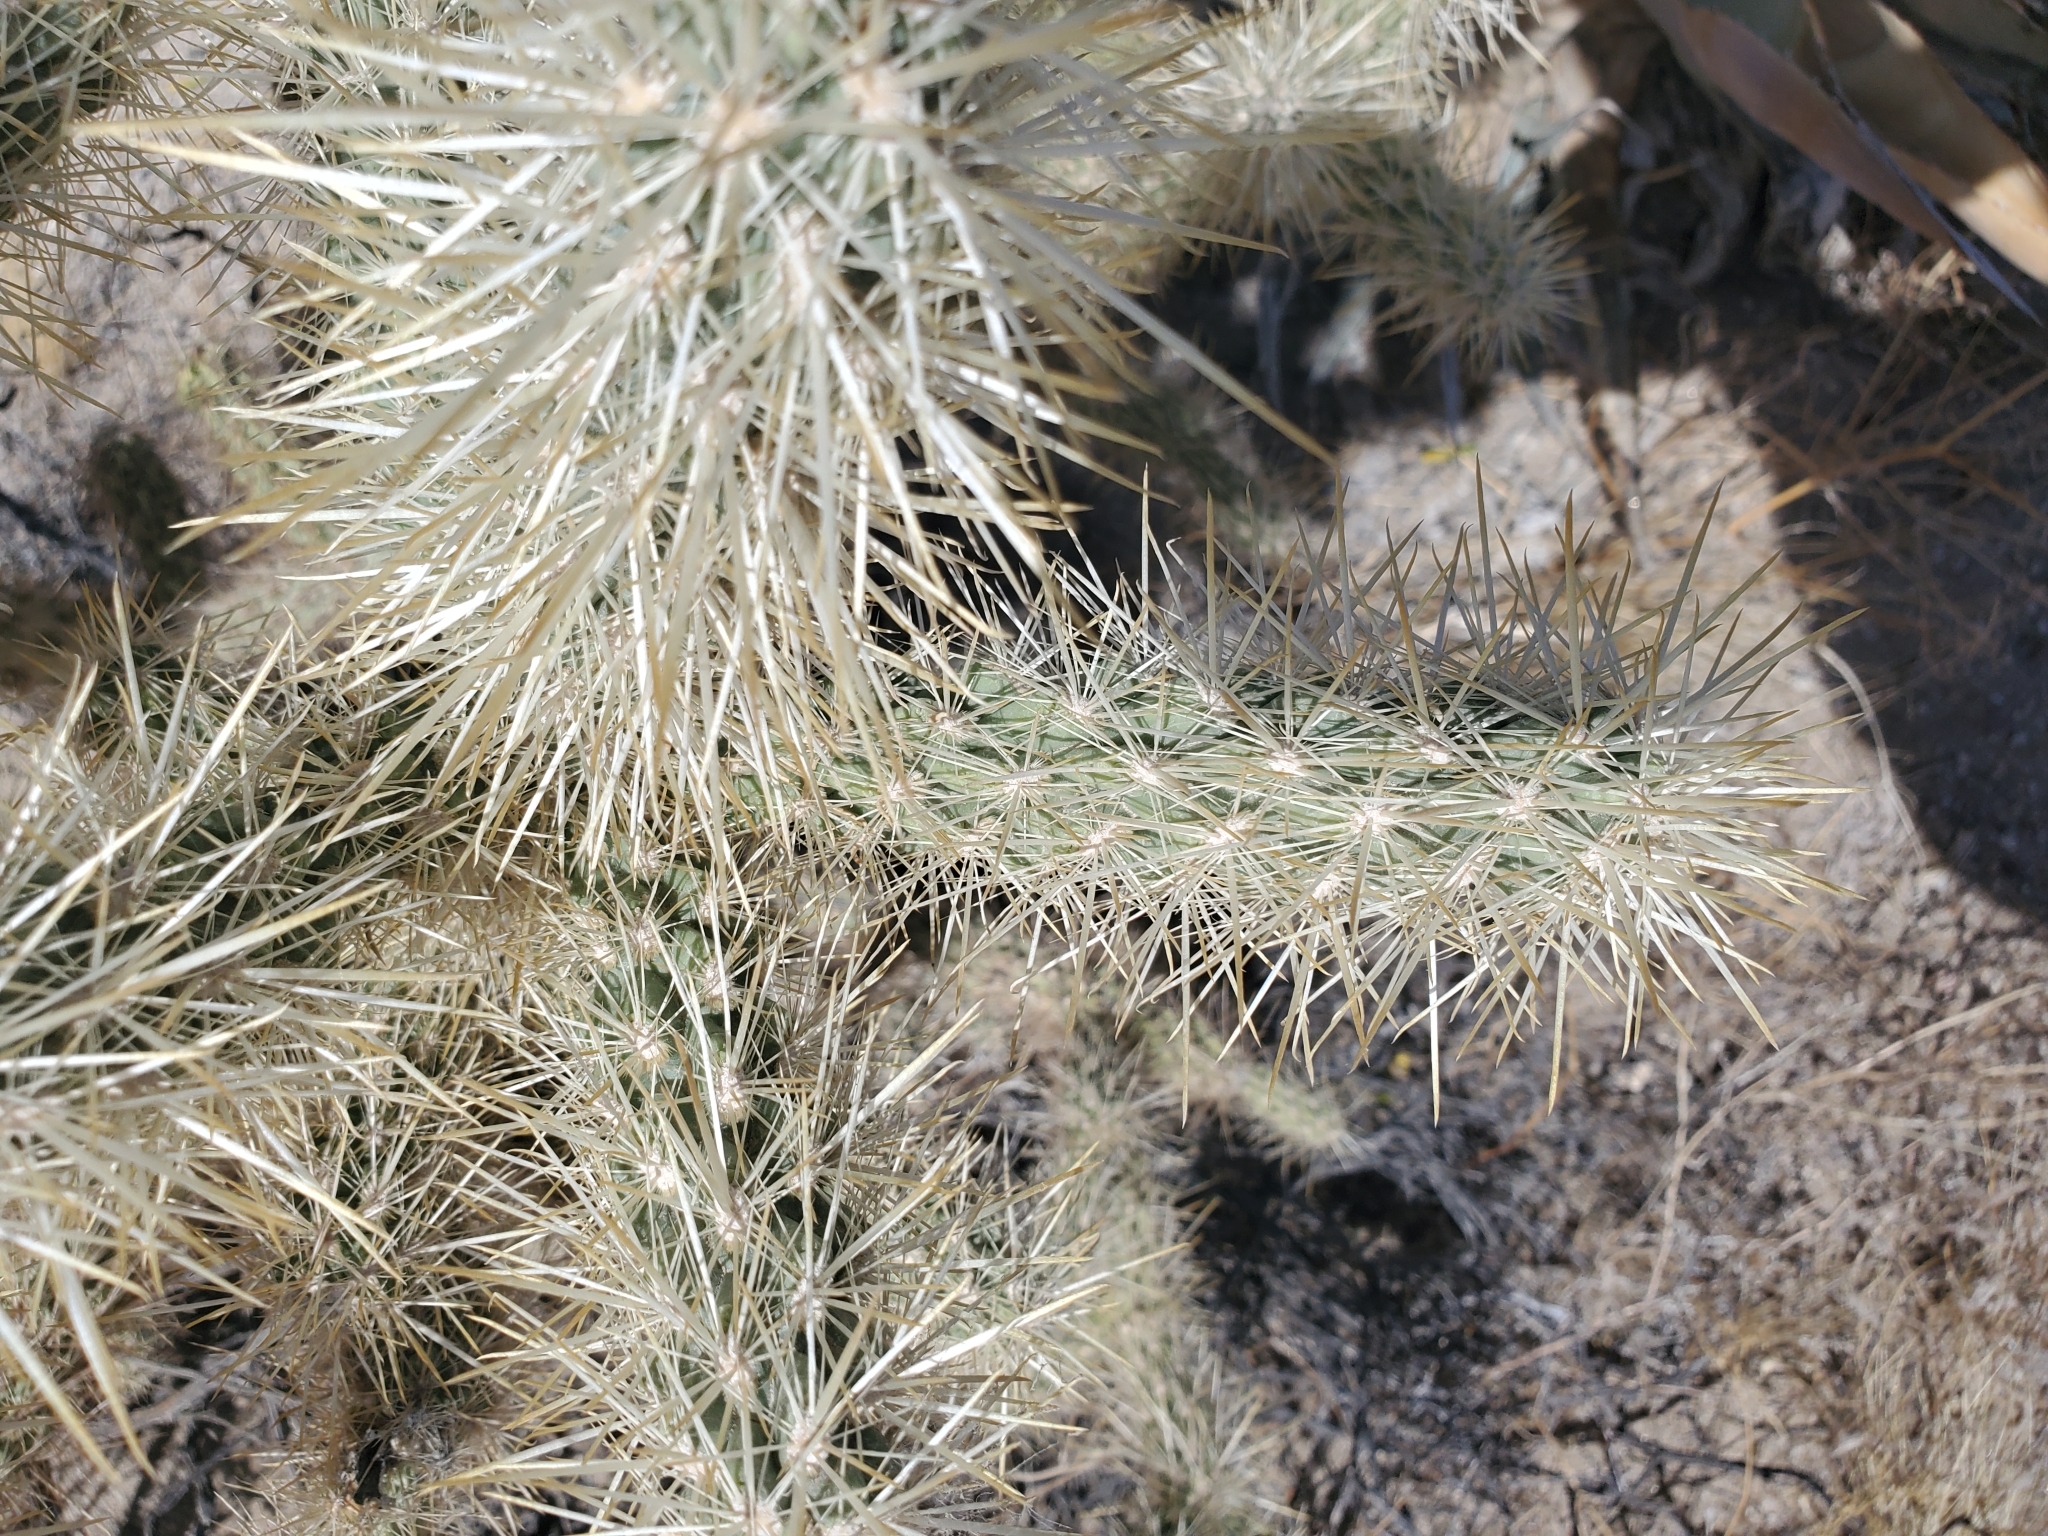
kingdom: Plantae
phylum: Tracheophyta
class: Magnoliopsida
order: Caryophyllales
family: Cactaceae
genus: Cylindropuntia
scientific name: Cylindropuntia echinocarpa
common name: Ground cholla
